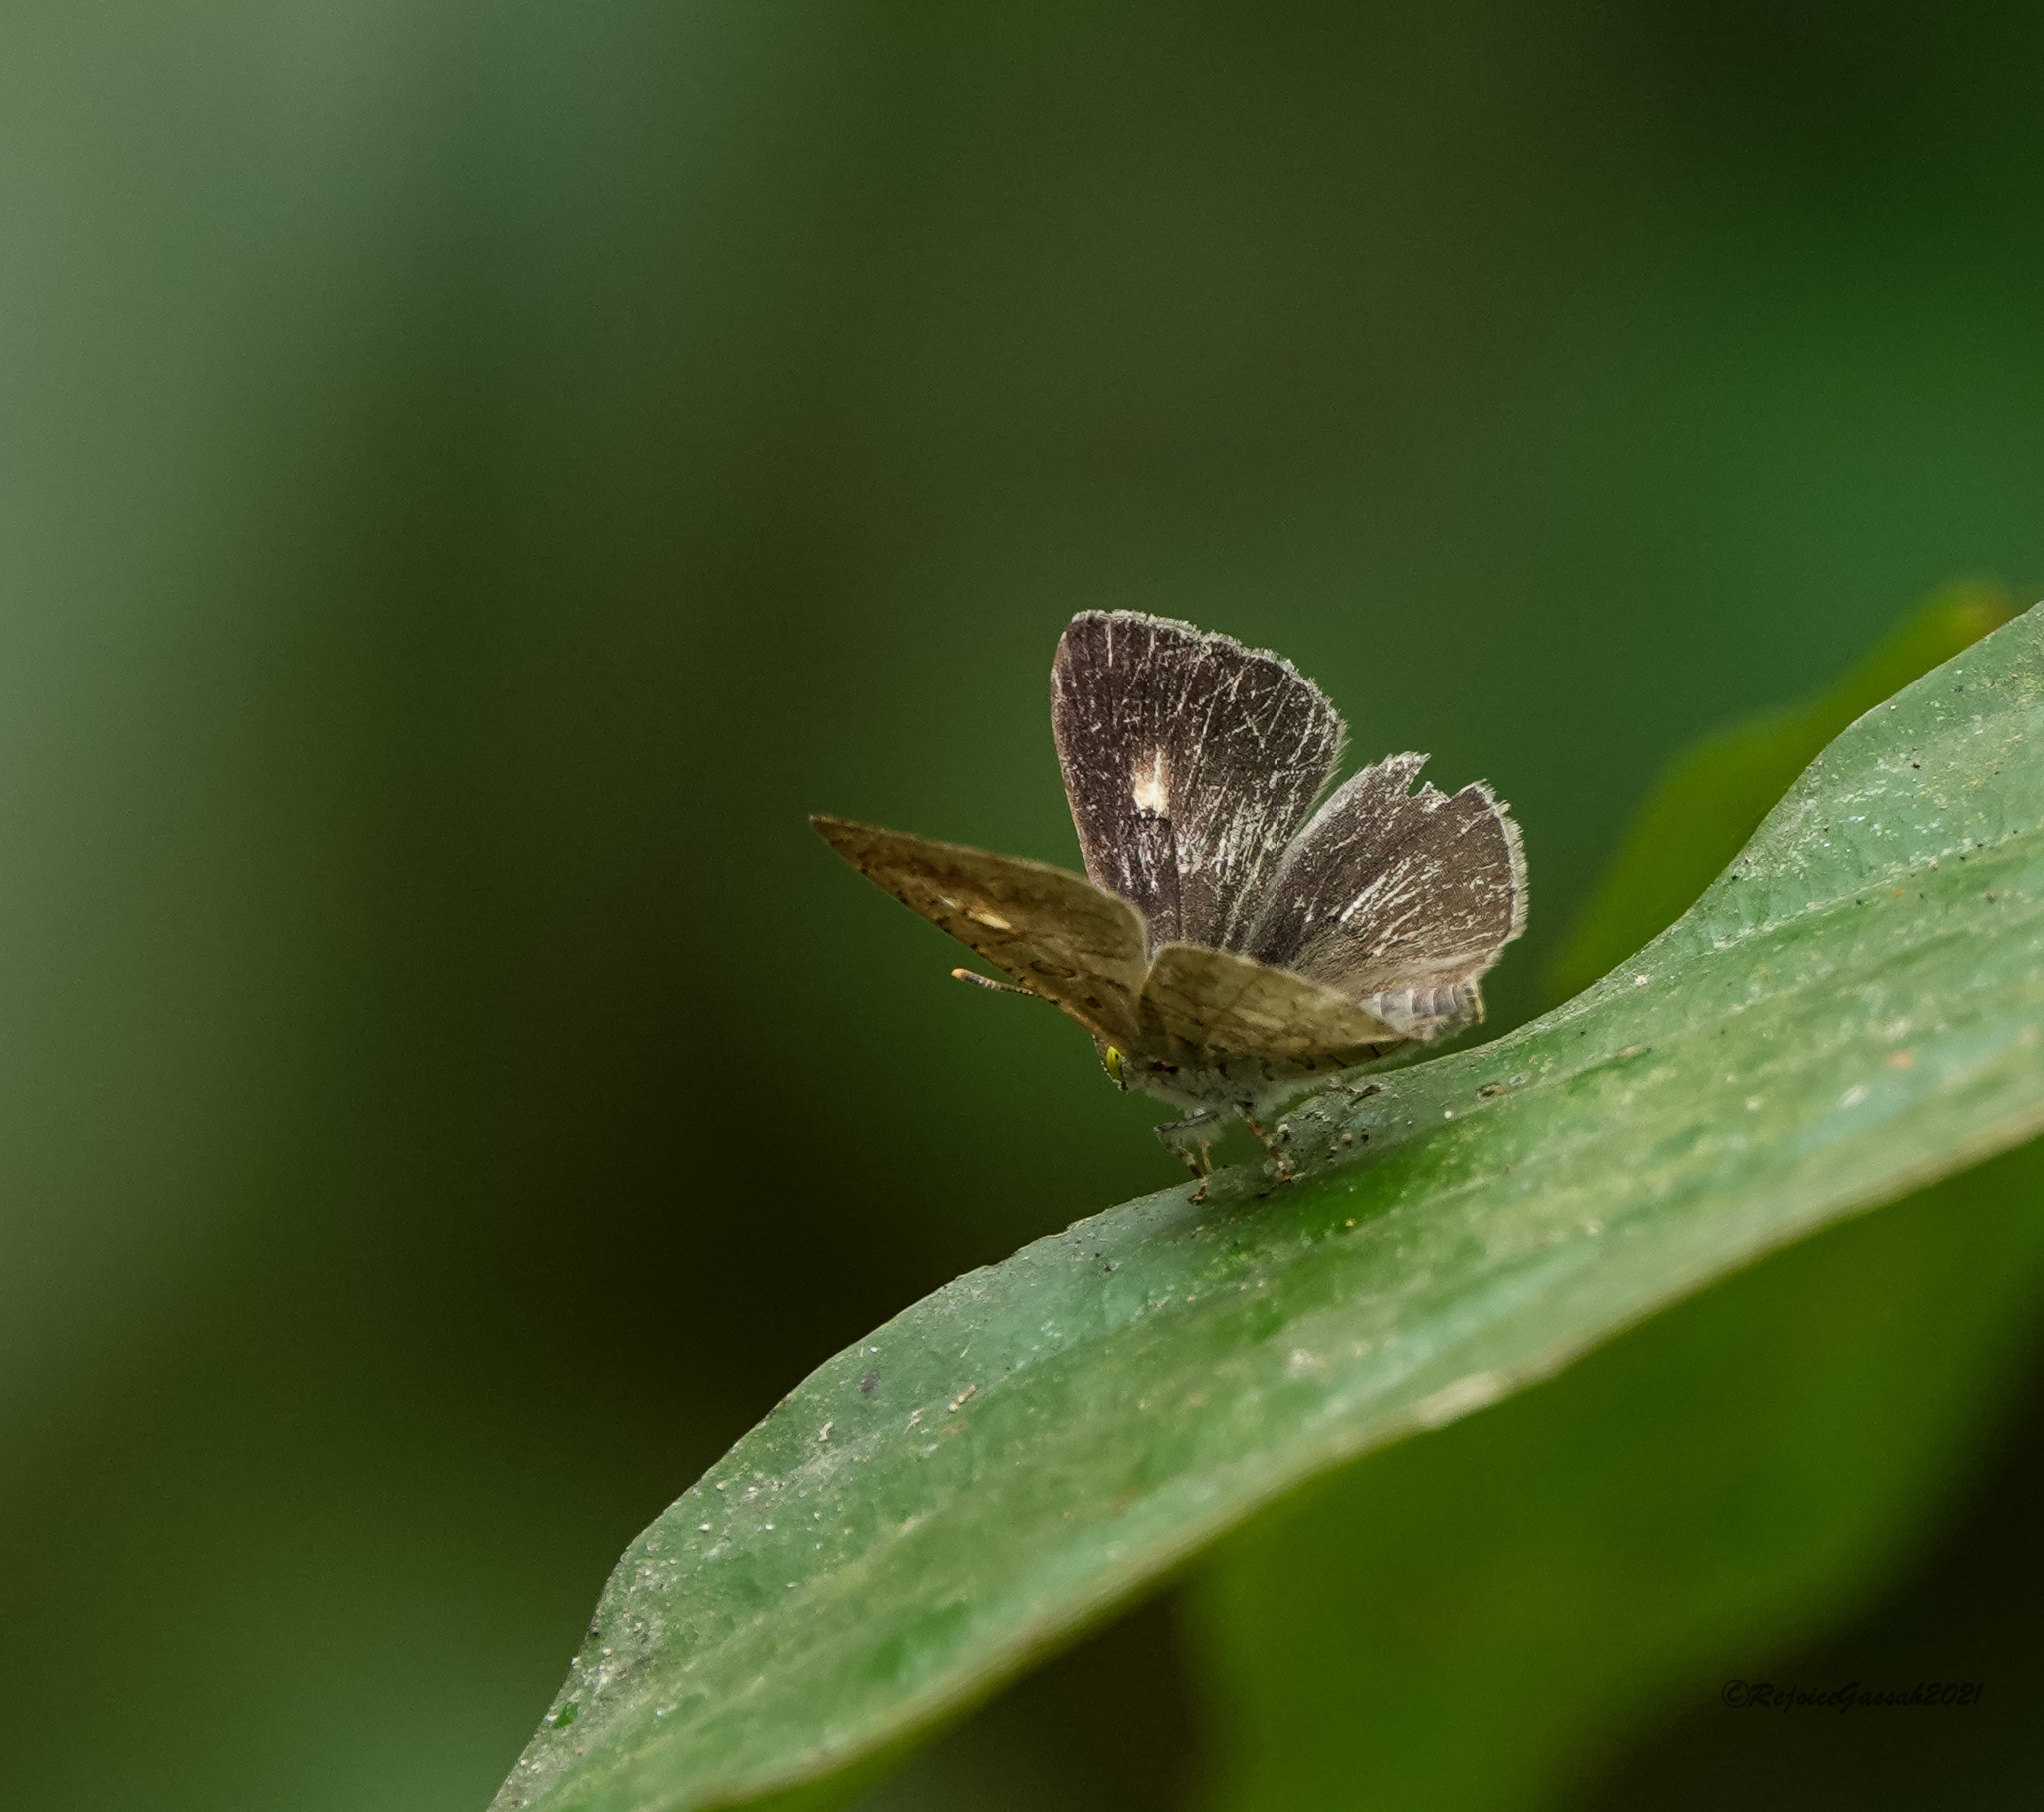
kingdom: Animalia
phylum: Arthropoda
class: Insecta
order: Lepidoptera
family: Lycaenidae
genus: Spalgis
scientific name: Spalgis epius
